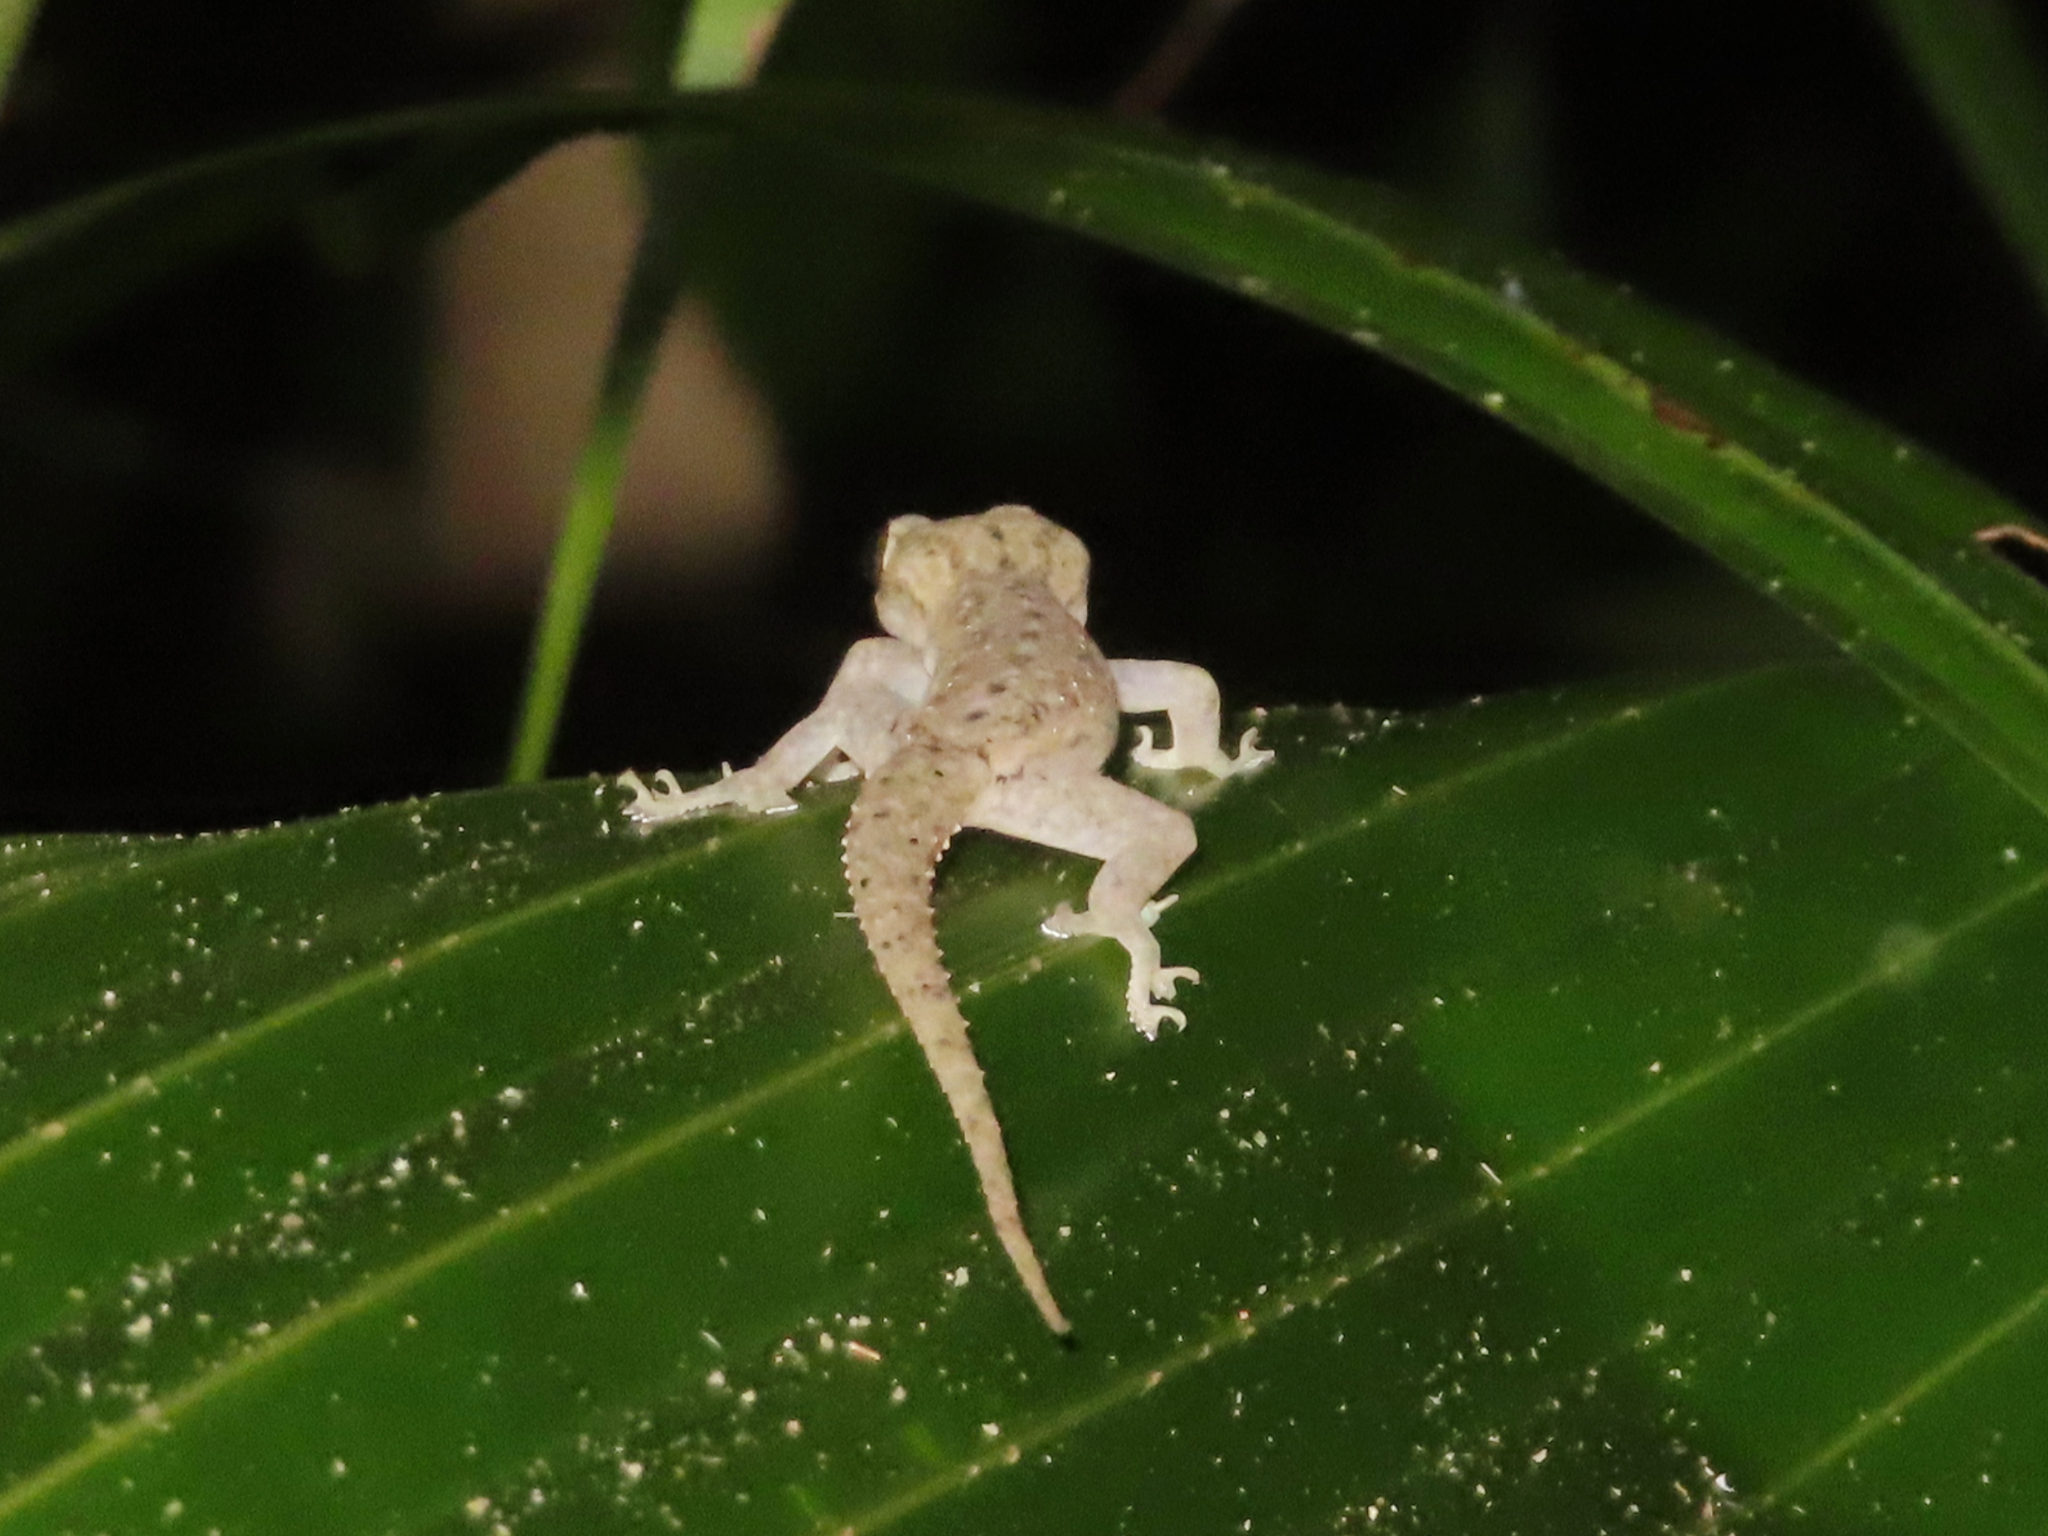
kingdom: Animalia
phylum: Chordata
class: Squamata
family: Gekkonidae
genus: Hemidactylus
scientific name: Hemidactylus frenatus
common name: Common house gecko
